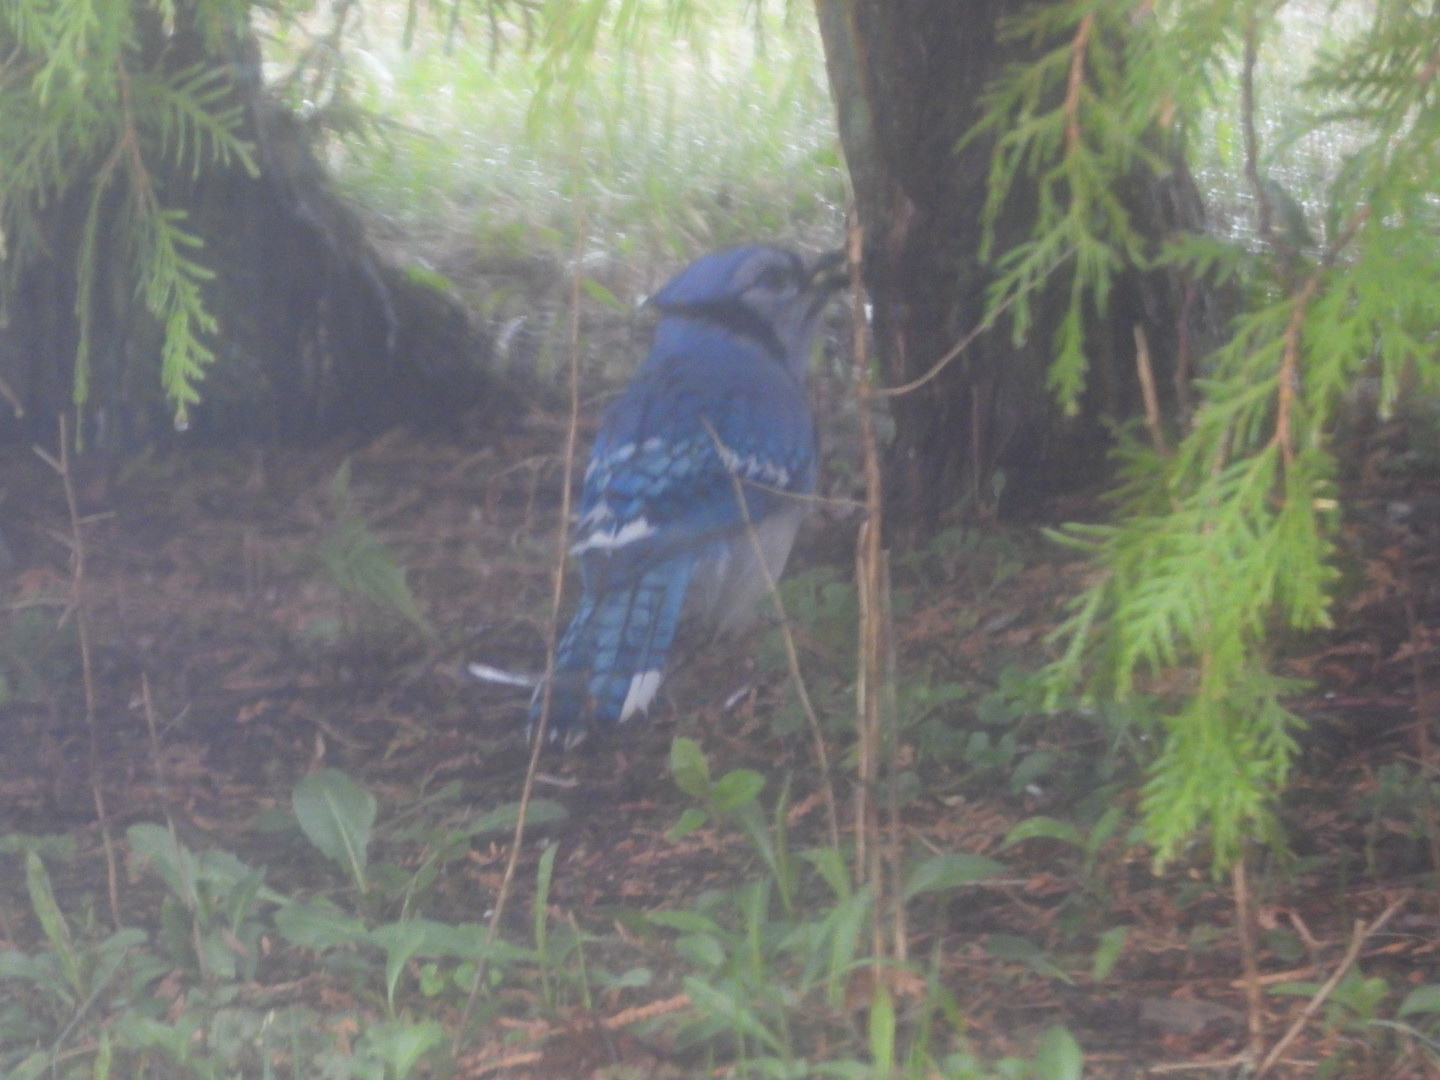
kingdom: Animalia
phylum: Chordata
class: Aves
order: Passeriformes
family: Corvidae
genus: Cyanocitta
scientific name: Cyanocitta cristata
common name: Blue jay
